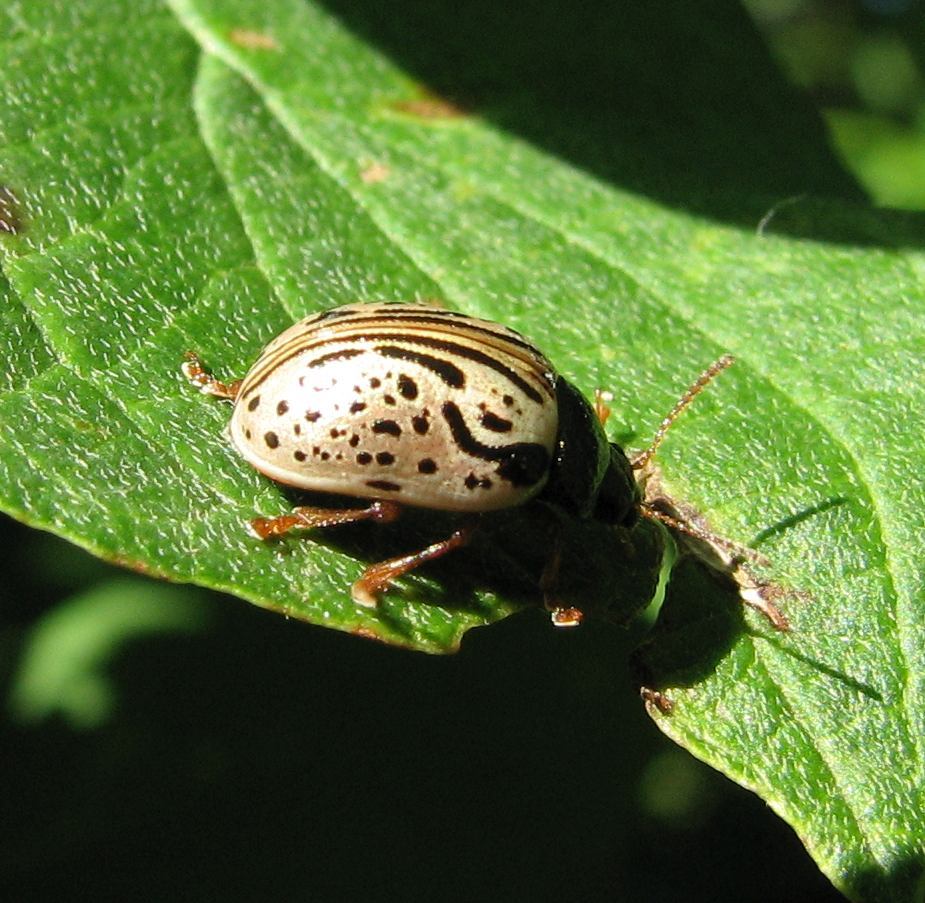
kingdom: Animalia
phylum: Arthropoda
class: Insecta
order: Coleoptera
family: Chrysomelidae
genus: Calligrapha
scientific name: Calligrapha philadelphica
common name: Dogwood leaf beetle
